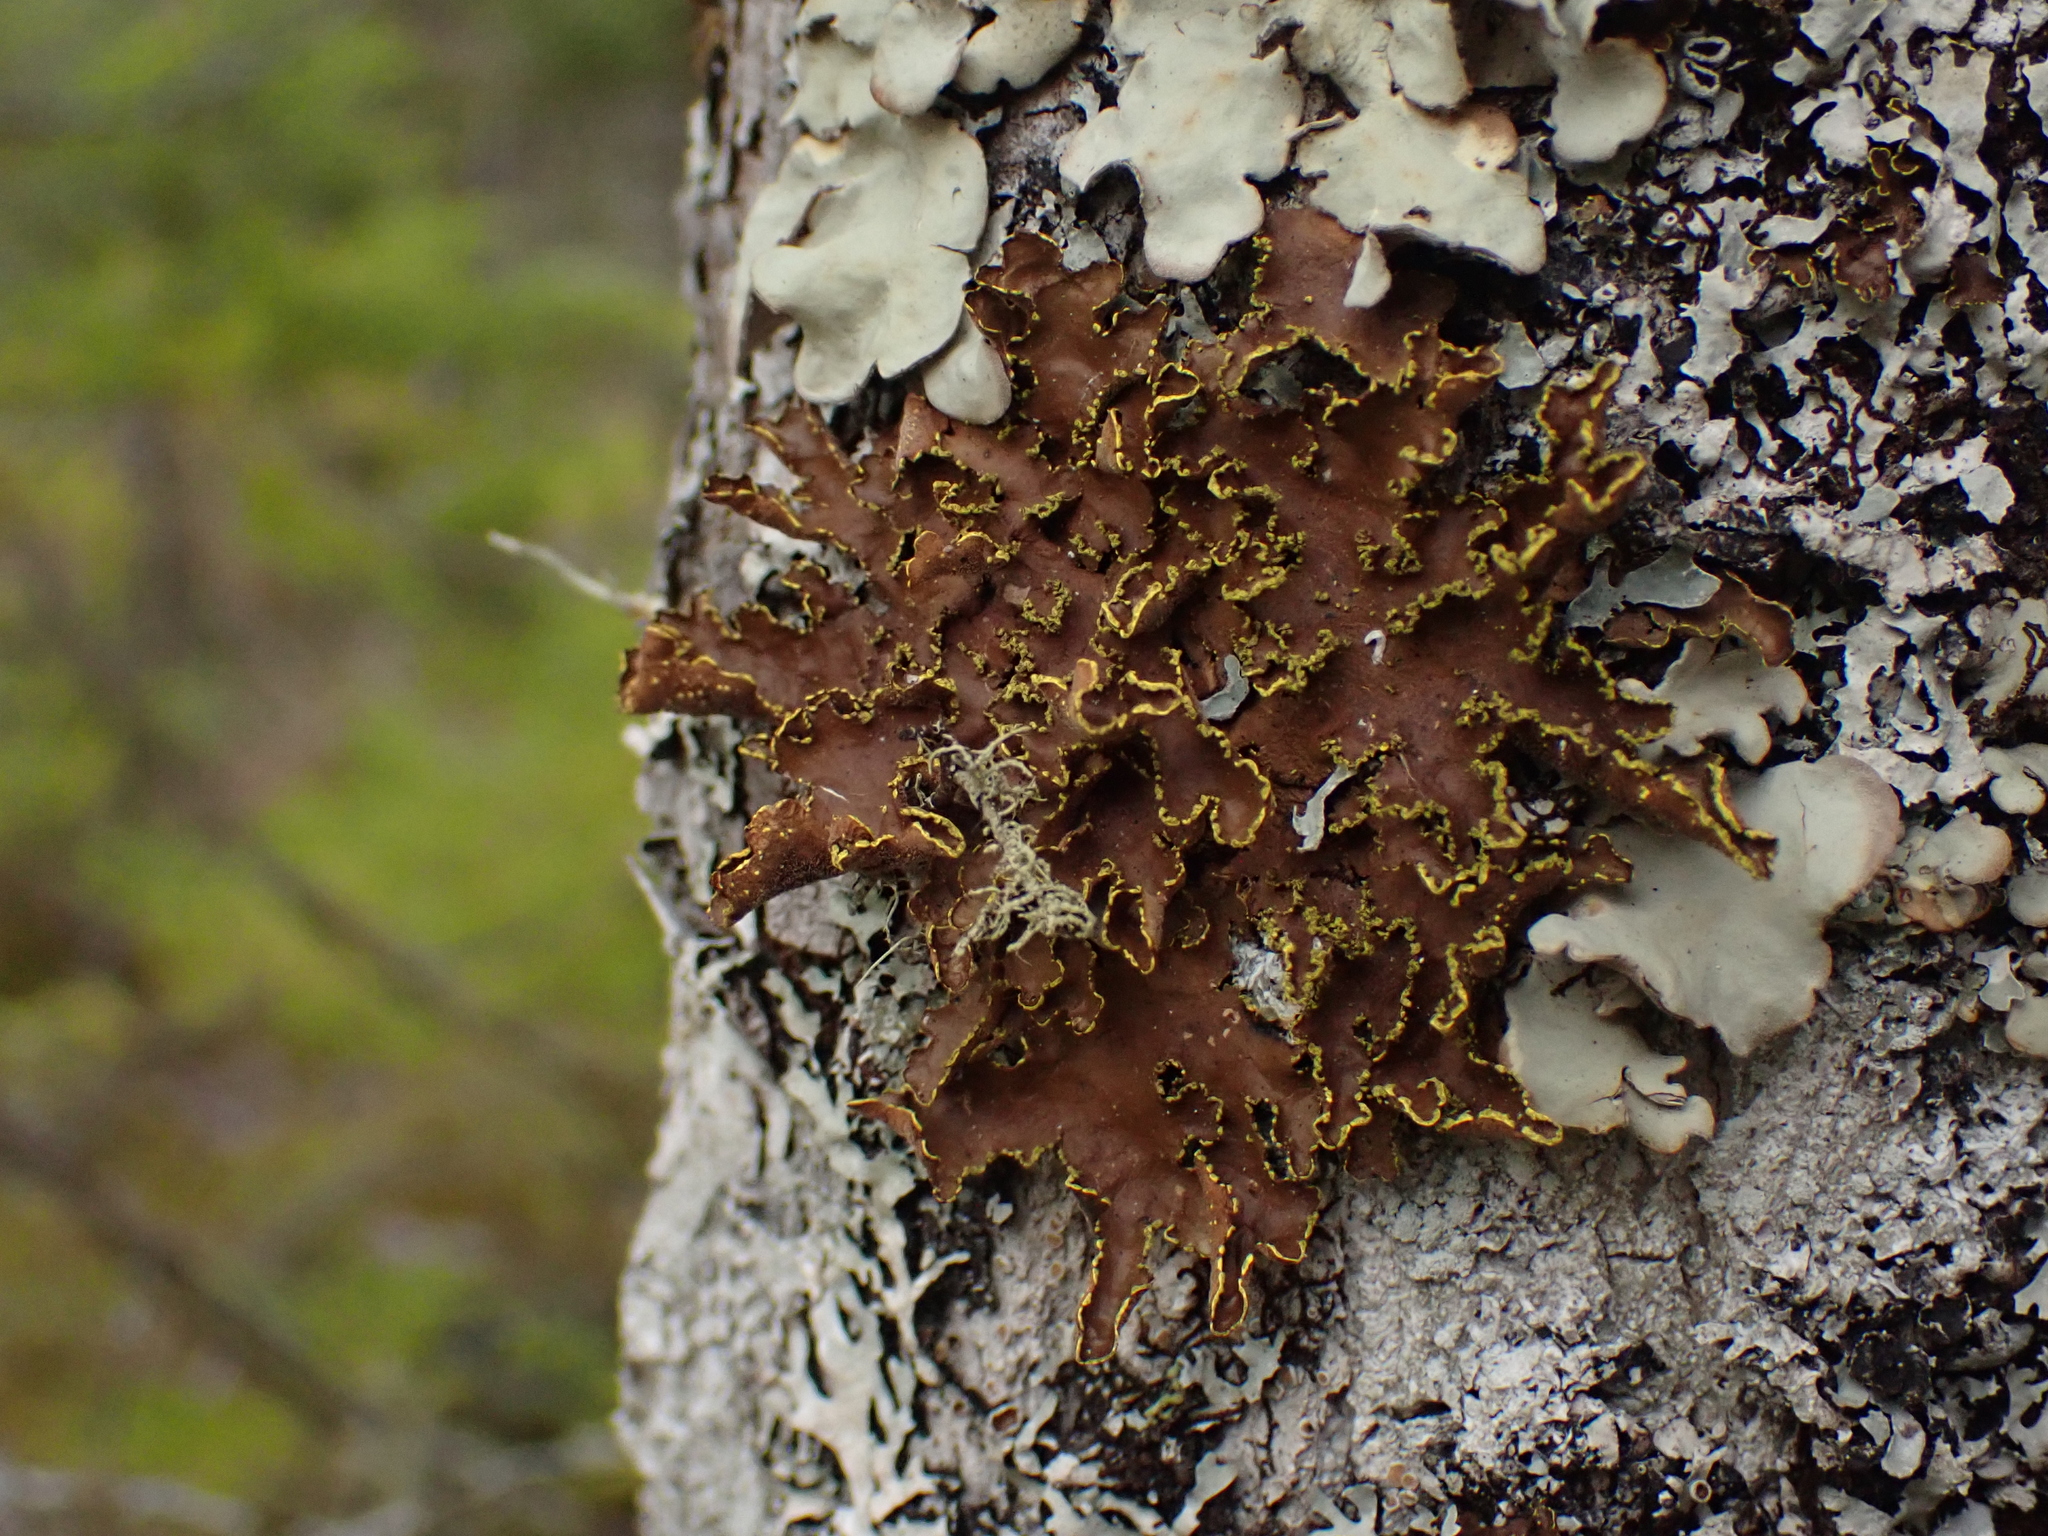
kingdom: Fungi
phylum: Ascomycota
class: Lecanoromycetes
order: Peltigerales
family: Lobariaceae
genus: Pseudocyphellaria
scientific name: Pseudocyphellaria holarctica
